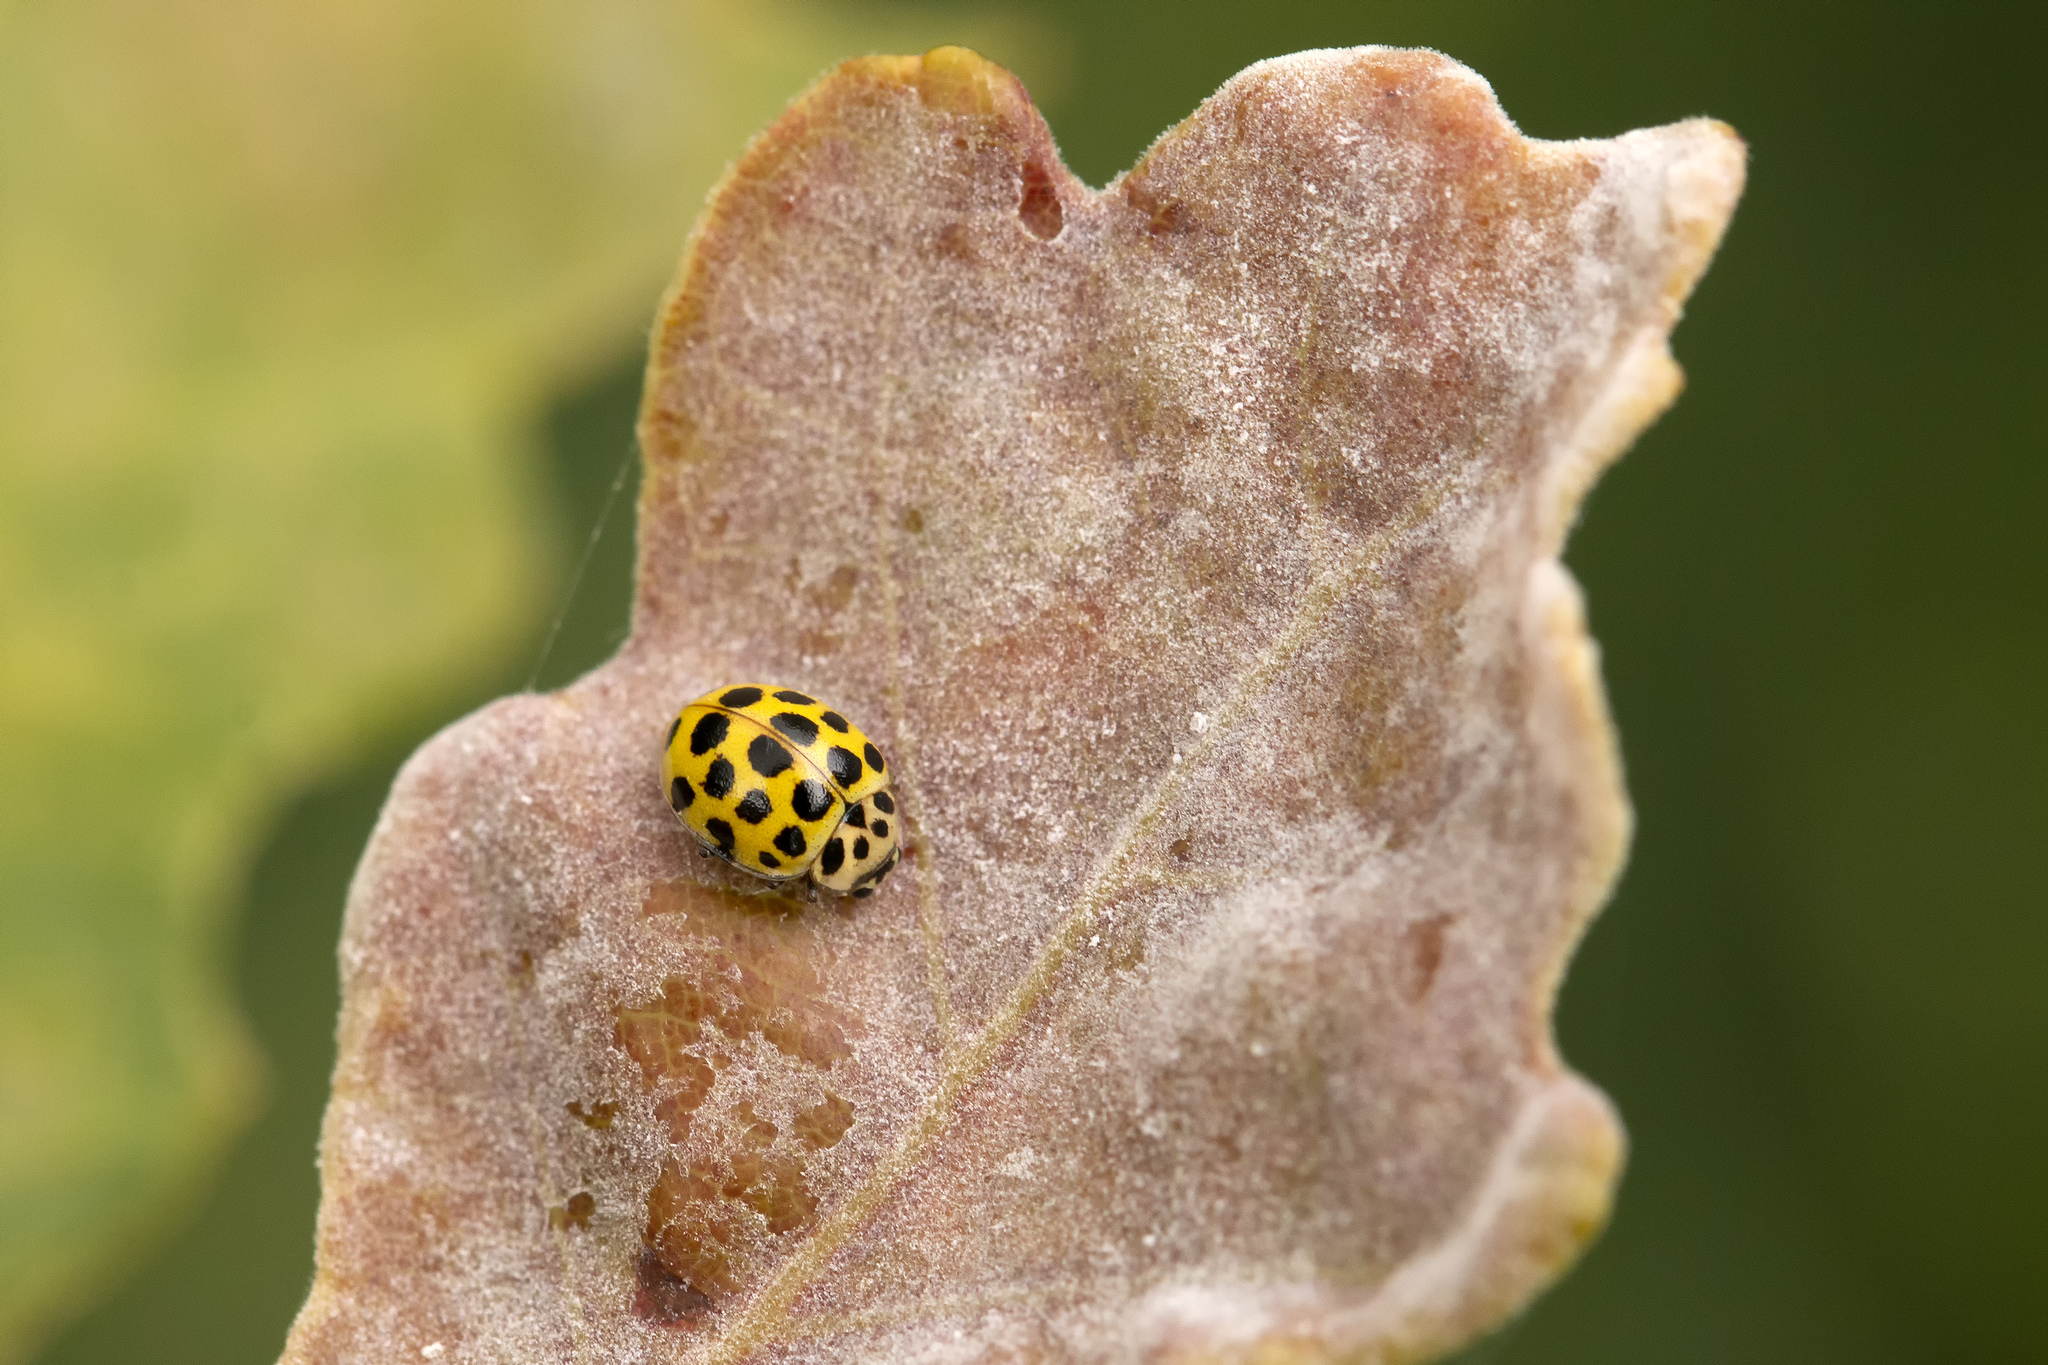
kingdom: Animalia
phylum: Arthropoda
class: Insecta
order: Coleoptera
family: Coccinellidae
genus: Psyllobora
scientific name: Psyllobora vigintiduopunctata
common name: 22-spot ladybird
